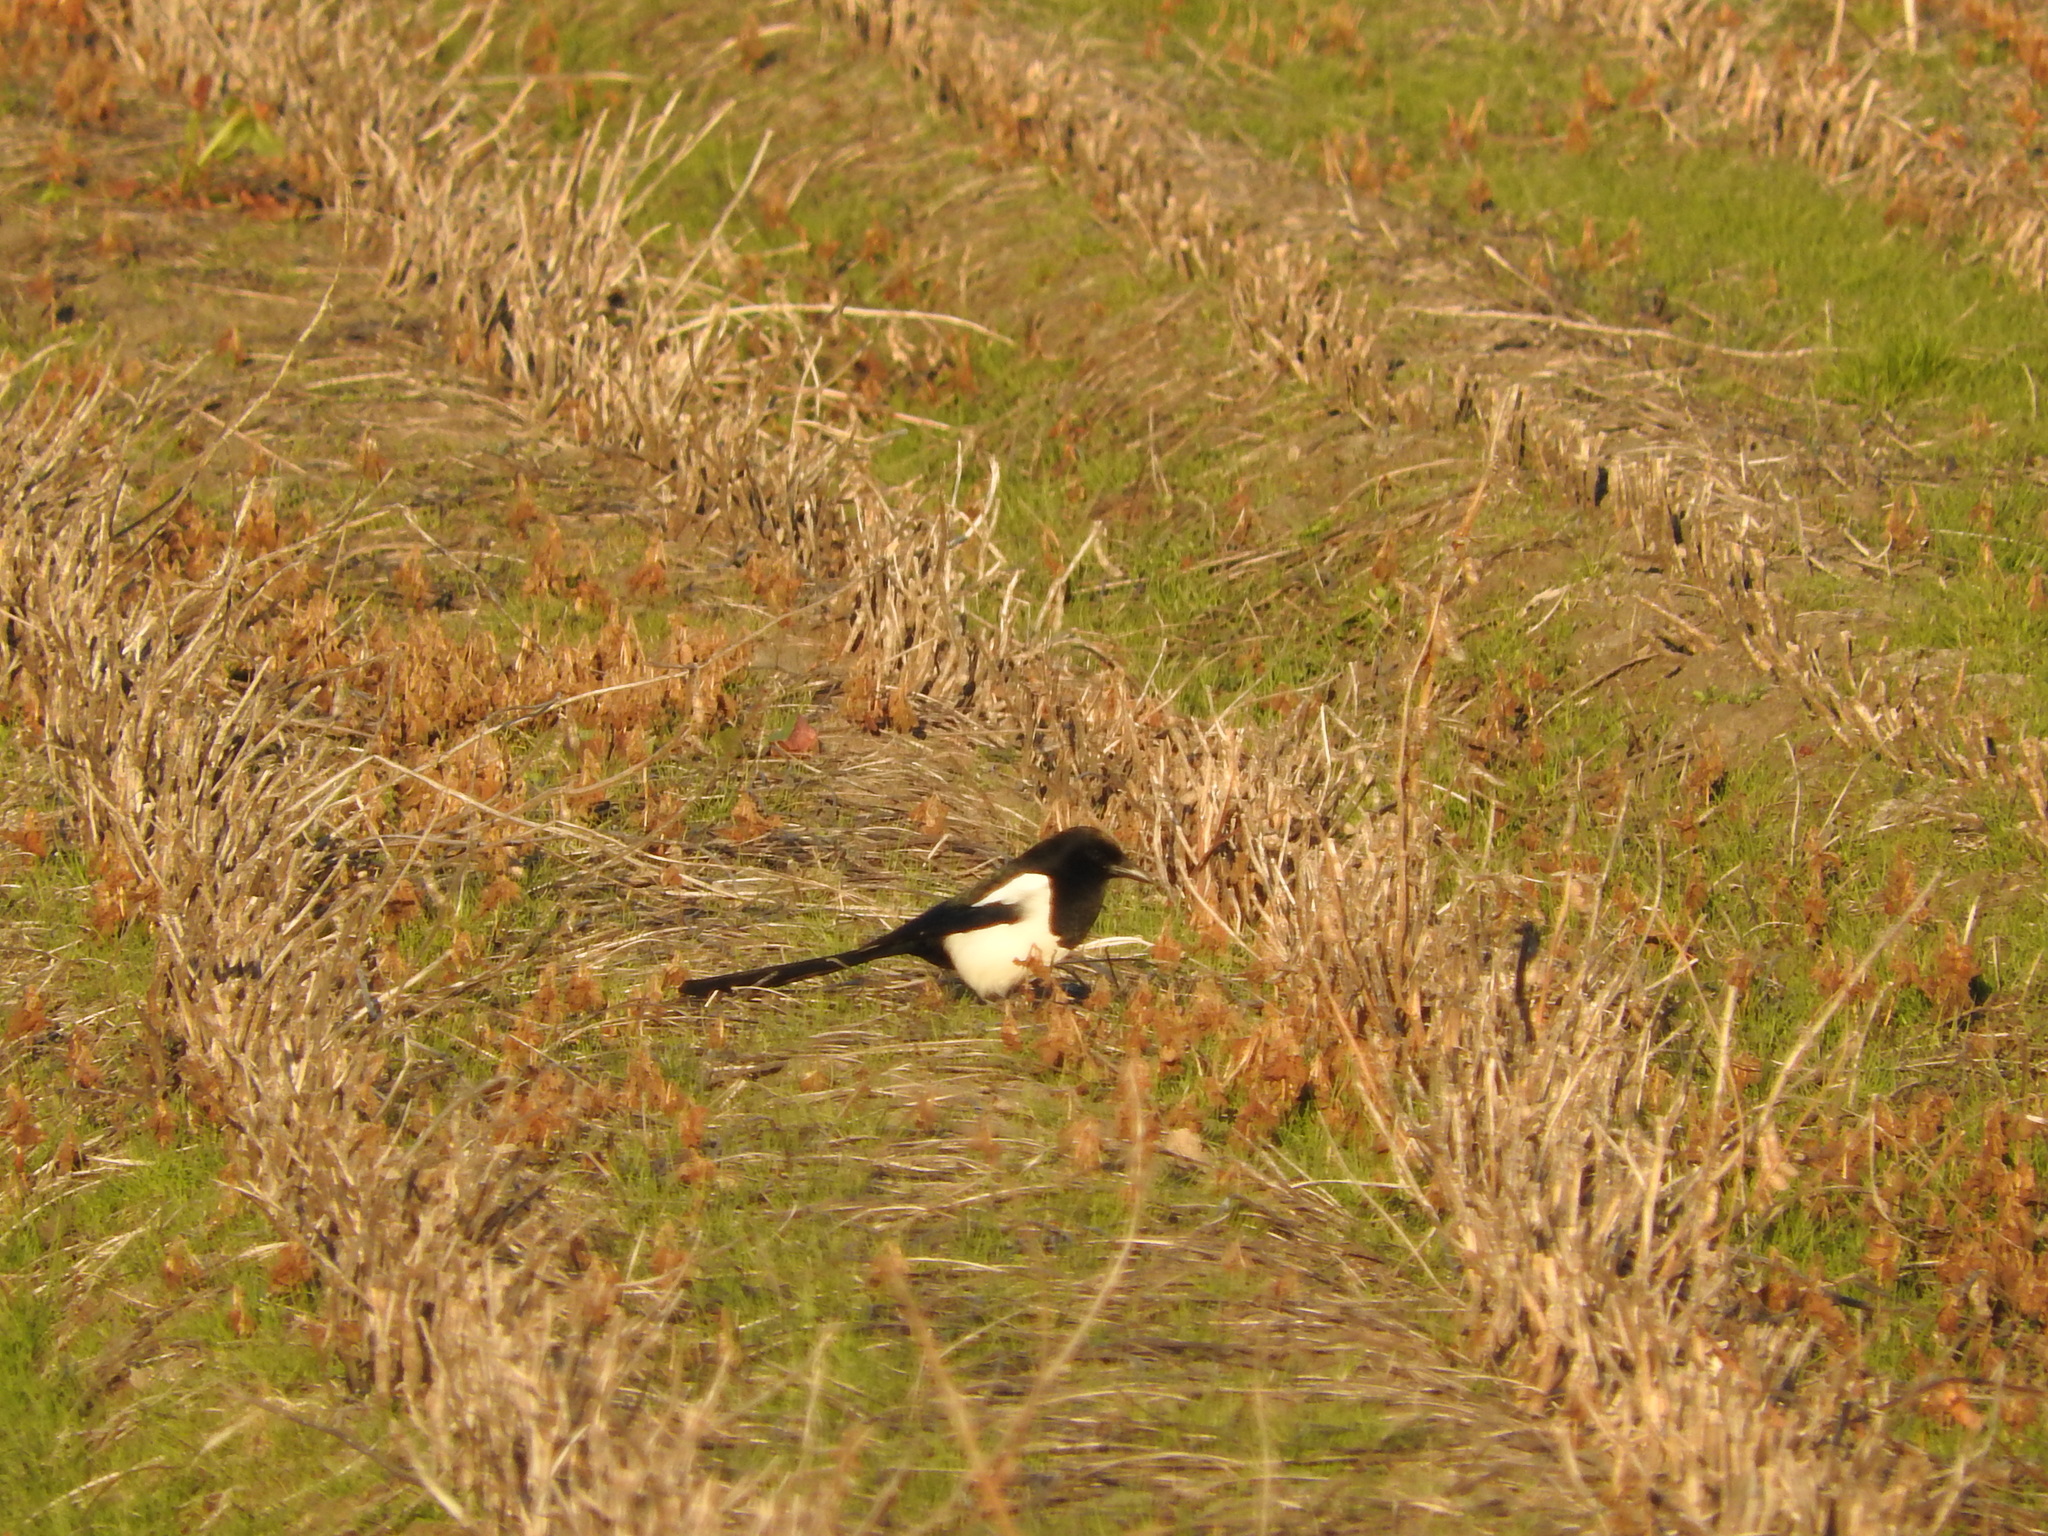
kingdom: Animalia
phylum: Chordata
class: Aves
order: Passeriformes
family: Corvidae
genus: Pica
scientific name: Pica pica
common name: Eurasian magpie
